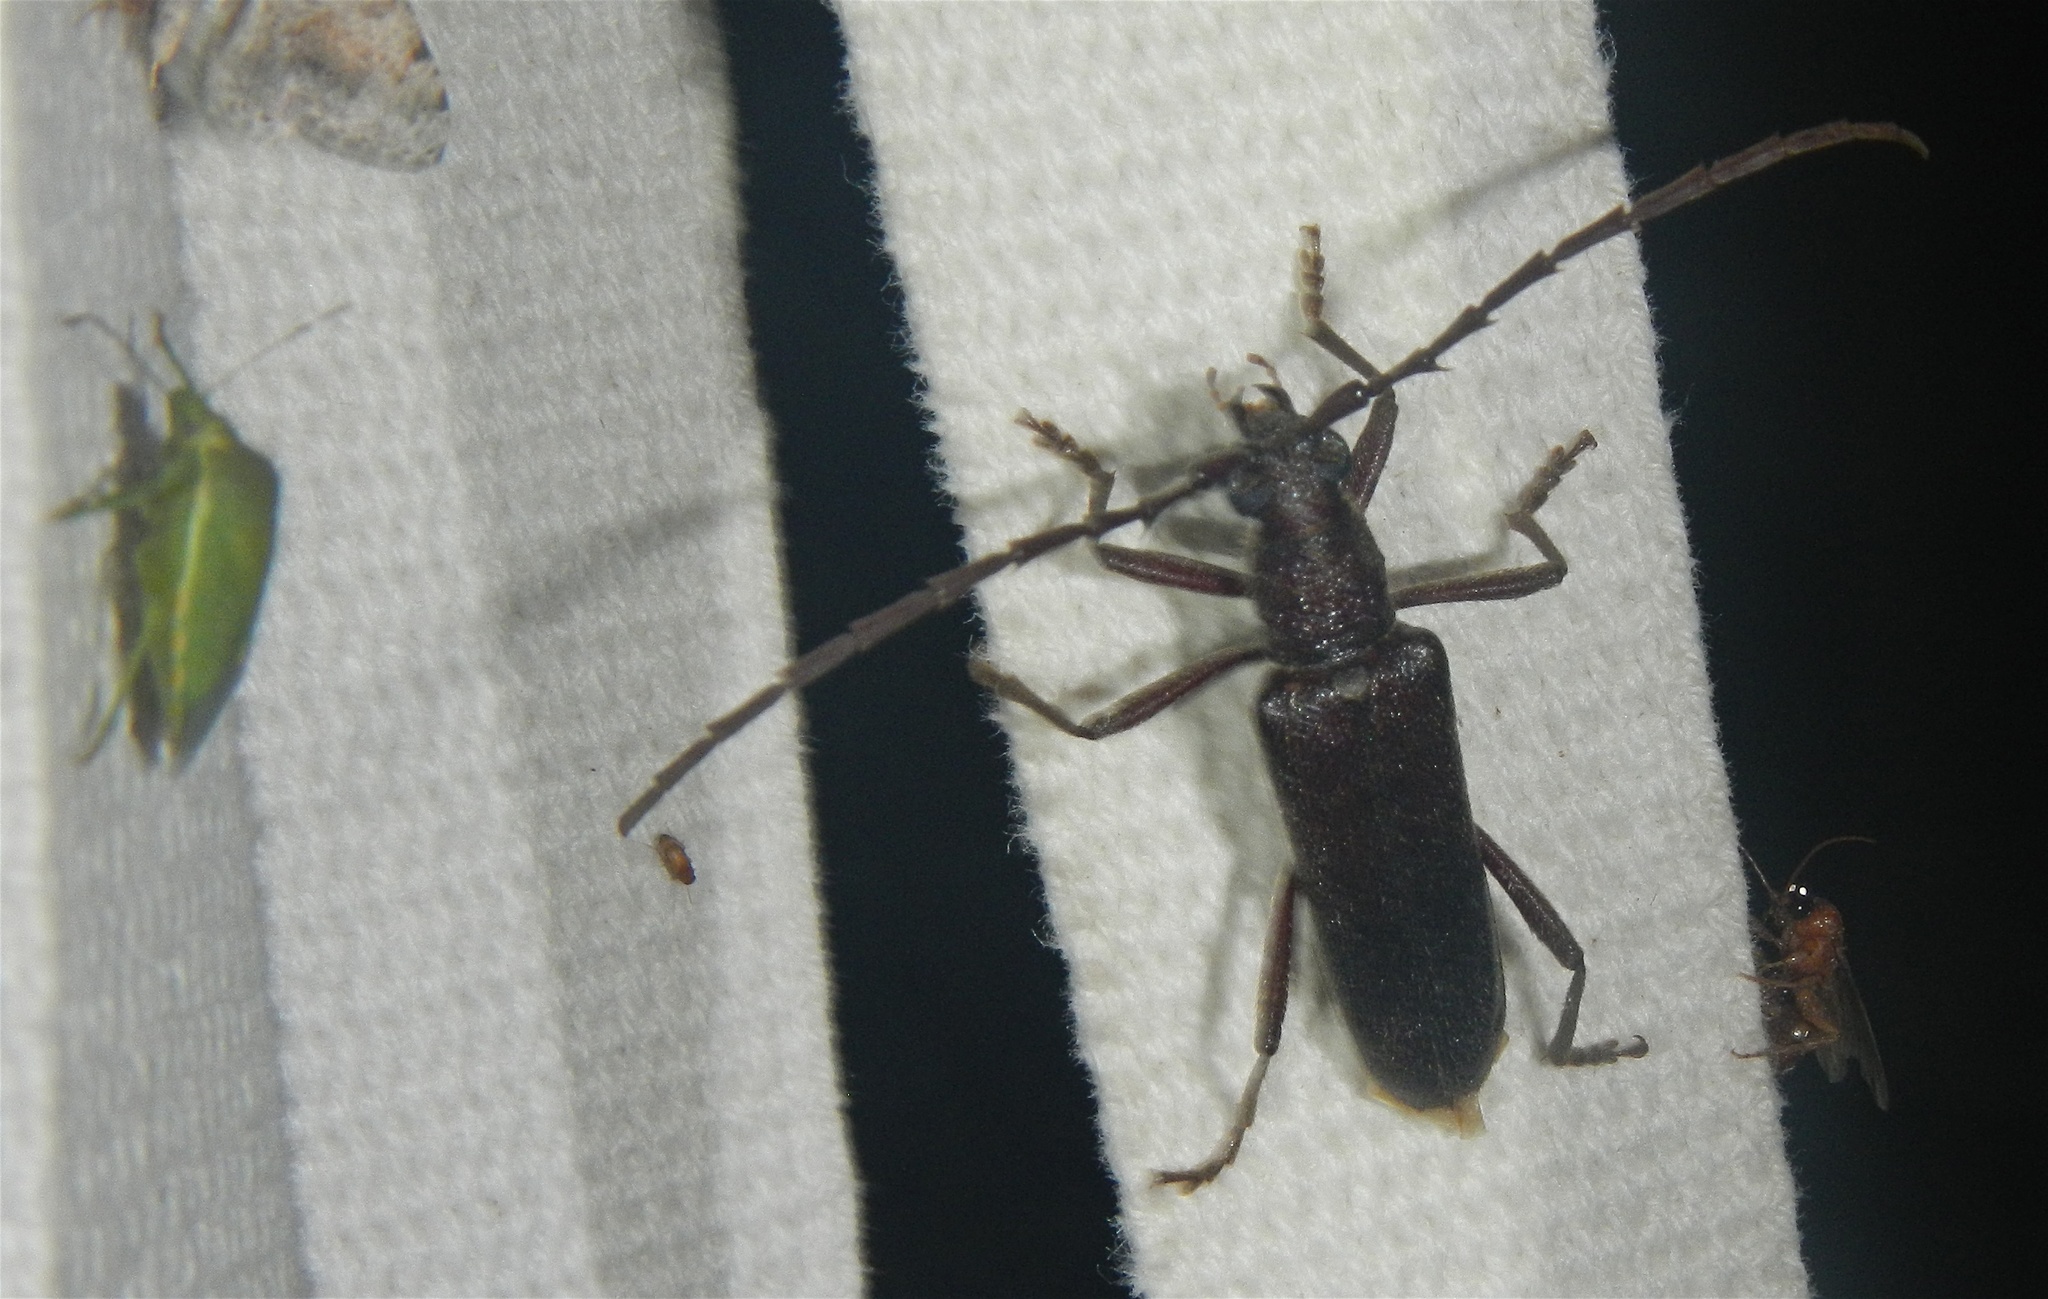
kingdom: Animalia
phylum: Arthropoda
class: Insecta
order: Coleoptera
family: Cerambycidae
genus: Aneflus
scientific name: Aneflus calvatus
